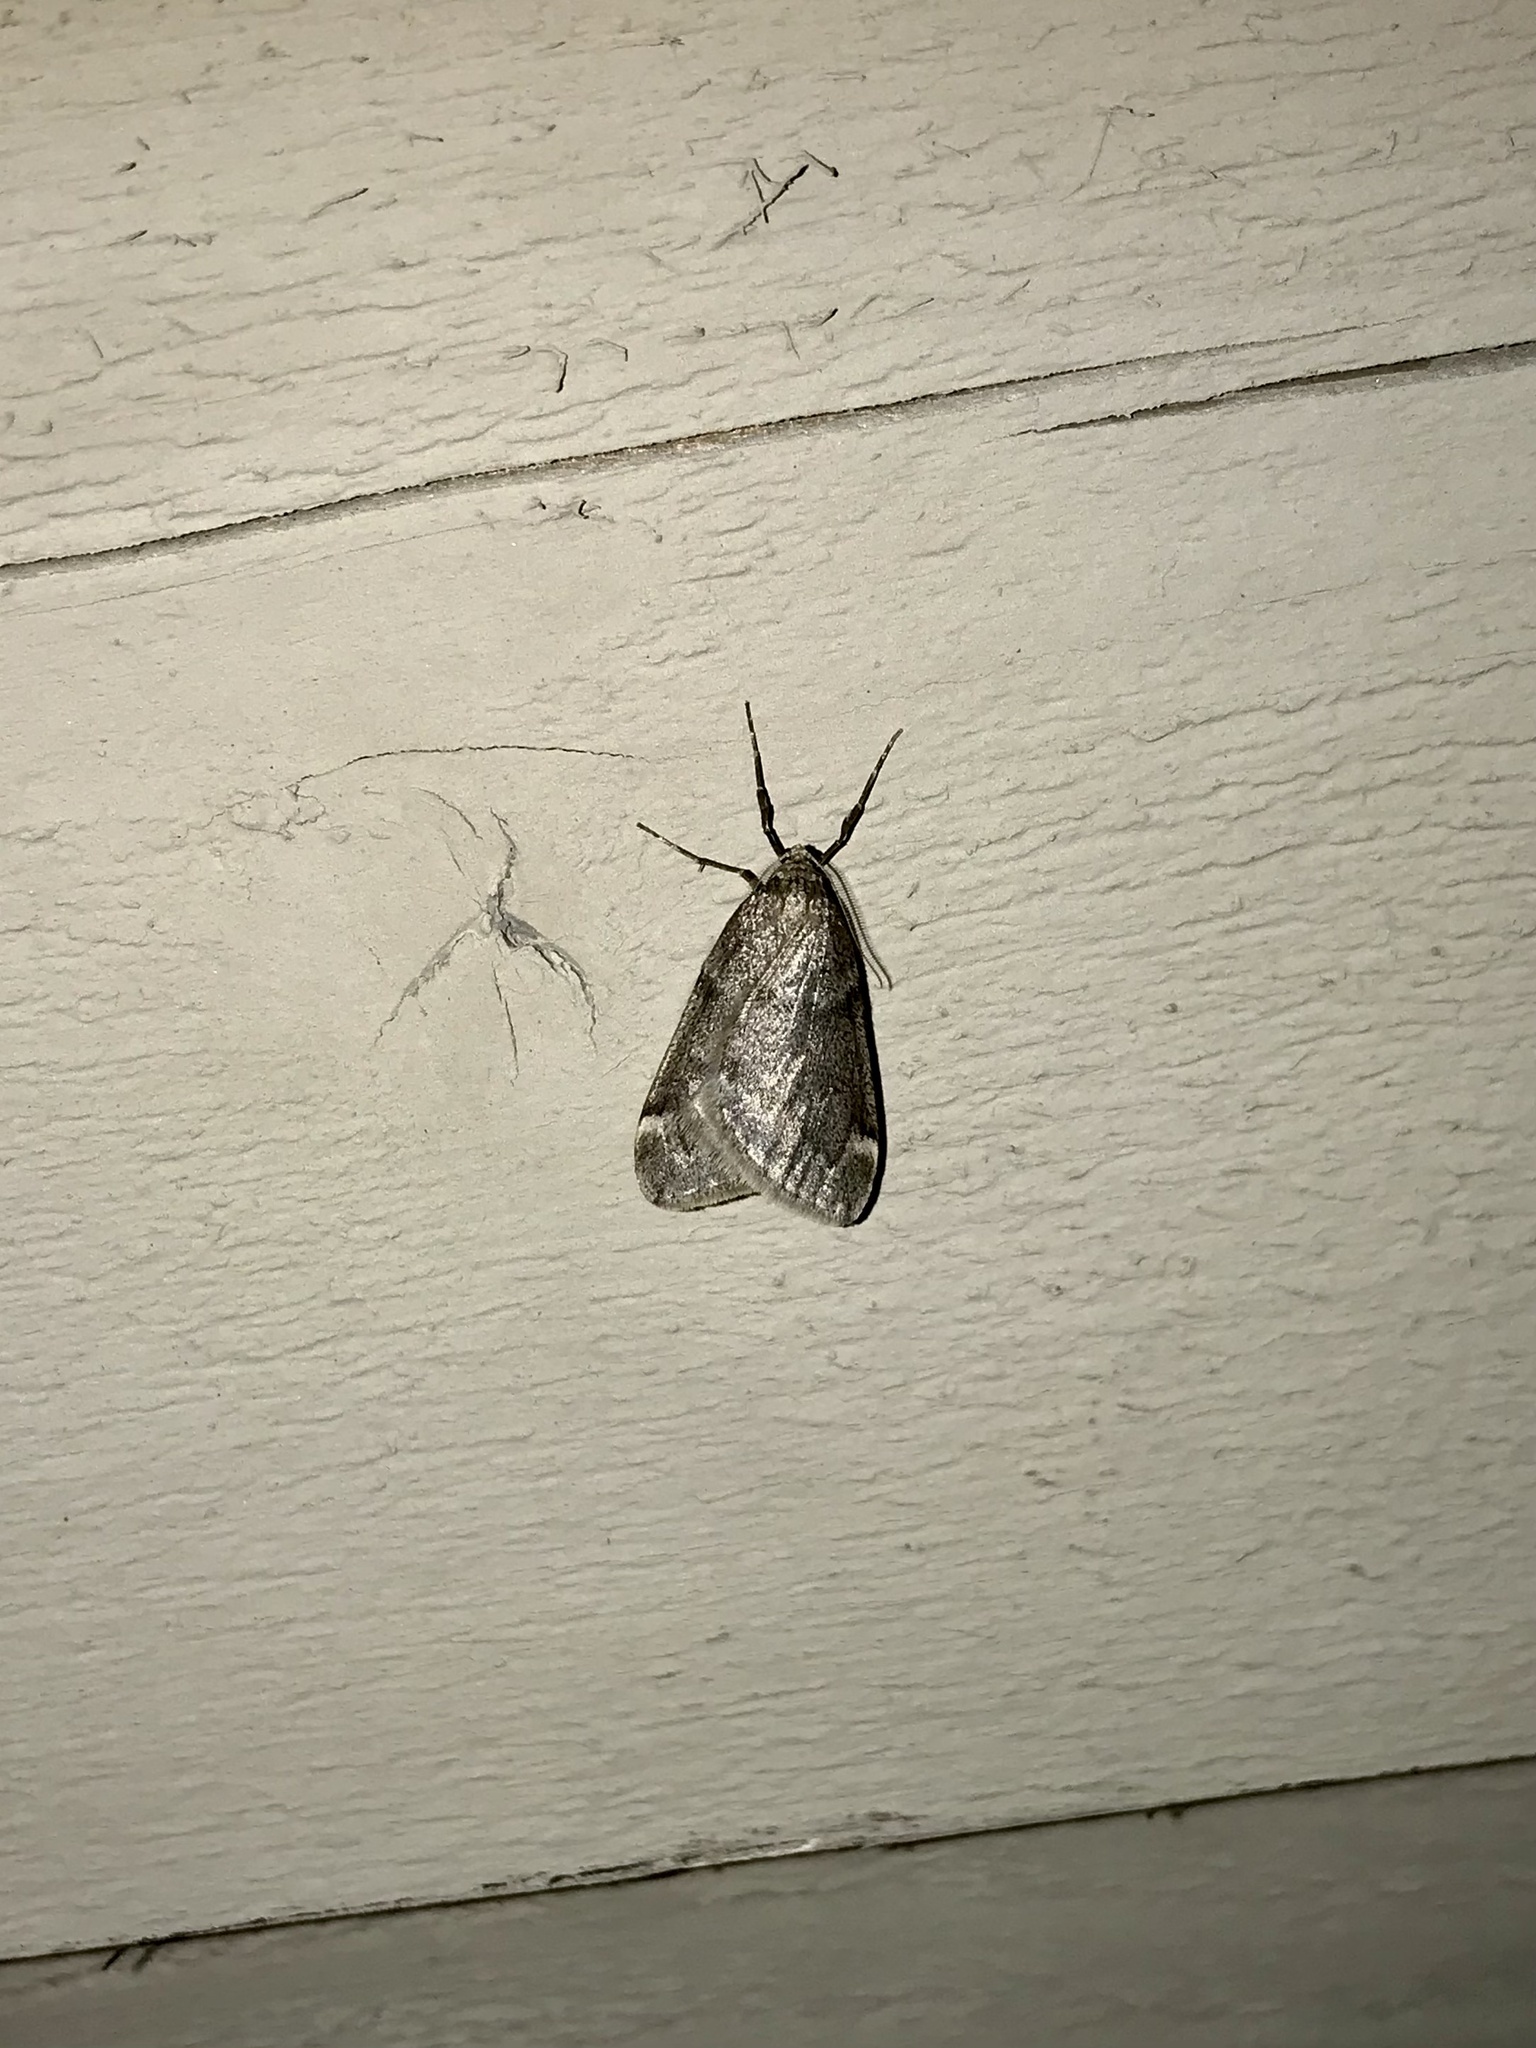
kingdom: Animalia
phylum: Arthropoda
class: Insecta
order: Lepidoptera
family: Geometridae
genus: Alsophila
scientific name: Alsophila pometaria
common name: Fall cankerworm
